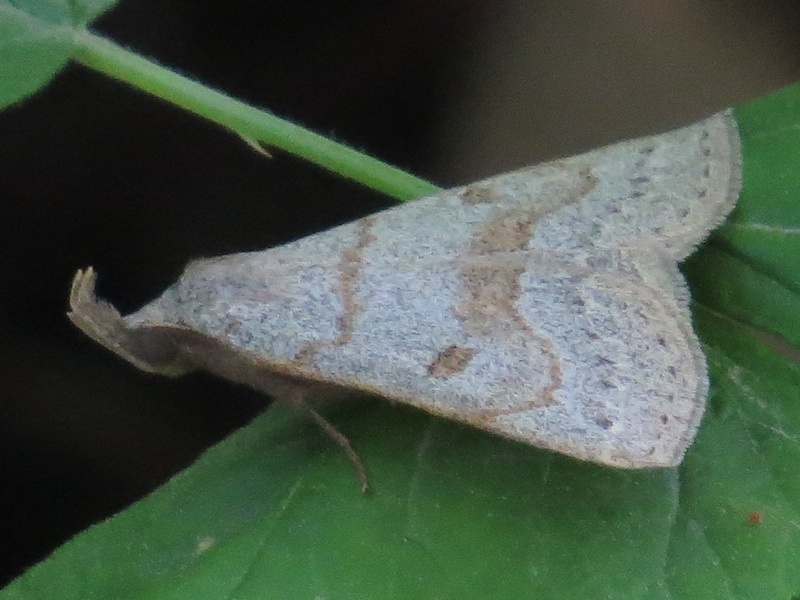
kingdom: Animalia
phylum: Arthropoda
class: Insecta
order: Lepidoptera
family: Erebidae
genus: Macrochilo
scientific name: Macrochilo morbidalis
